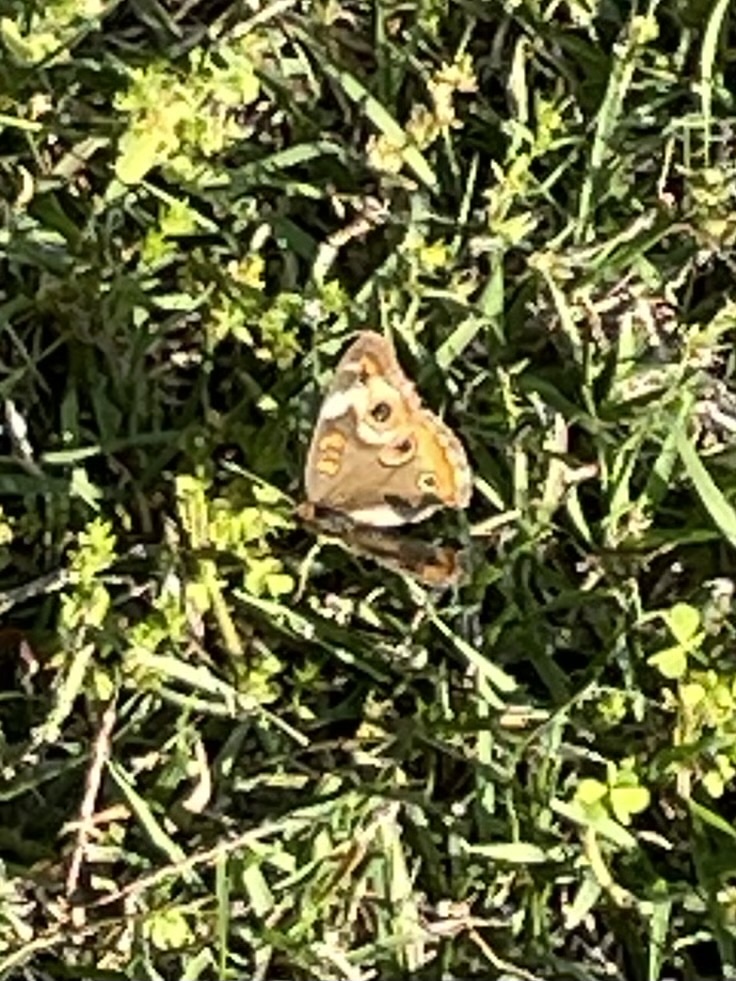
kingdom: Animalia
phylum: Arthropoda
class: Insecta
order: Lepidoptera
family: Nymphalidae
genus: Junonia
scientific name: Junonia coenia
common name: Common buckeye
